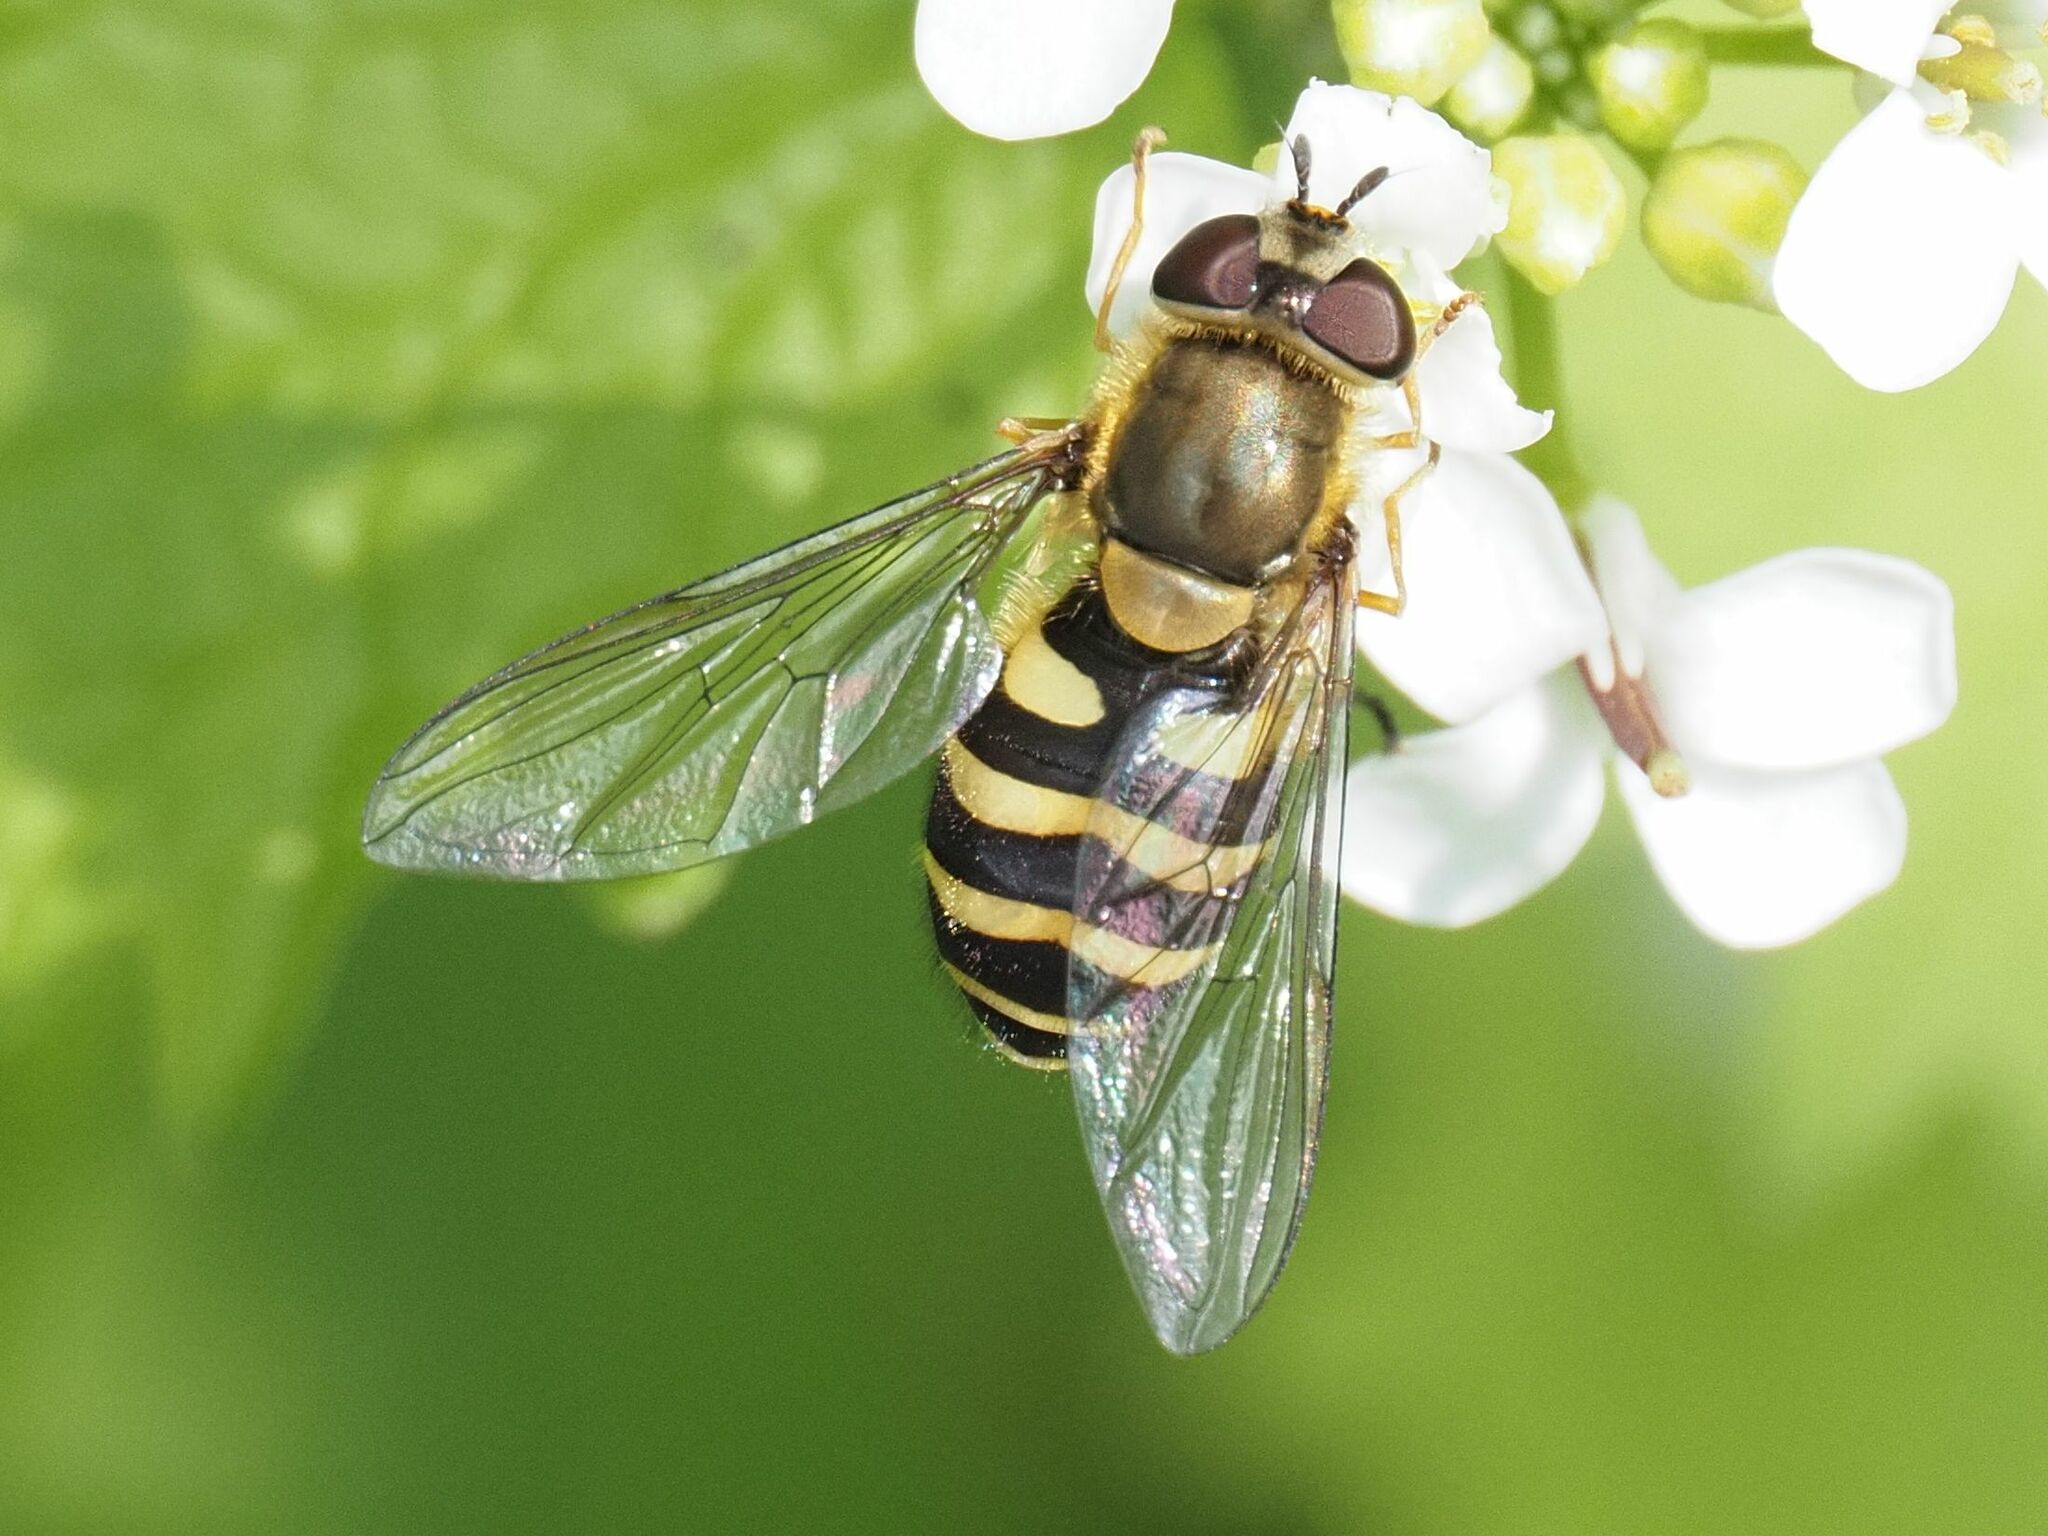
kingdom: Animalia
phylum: Arthropoda
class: Insecta
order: Diptera
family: Syrphidae
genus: Syrphus
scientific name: Syrphus ribesii
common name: Common flower fly
